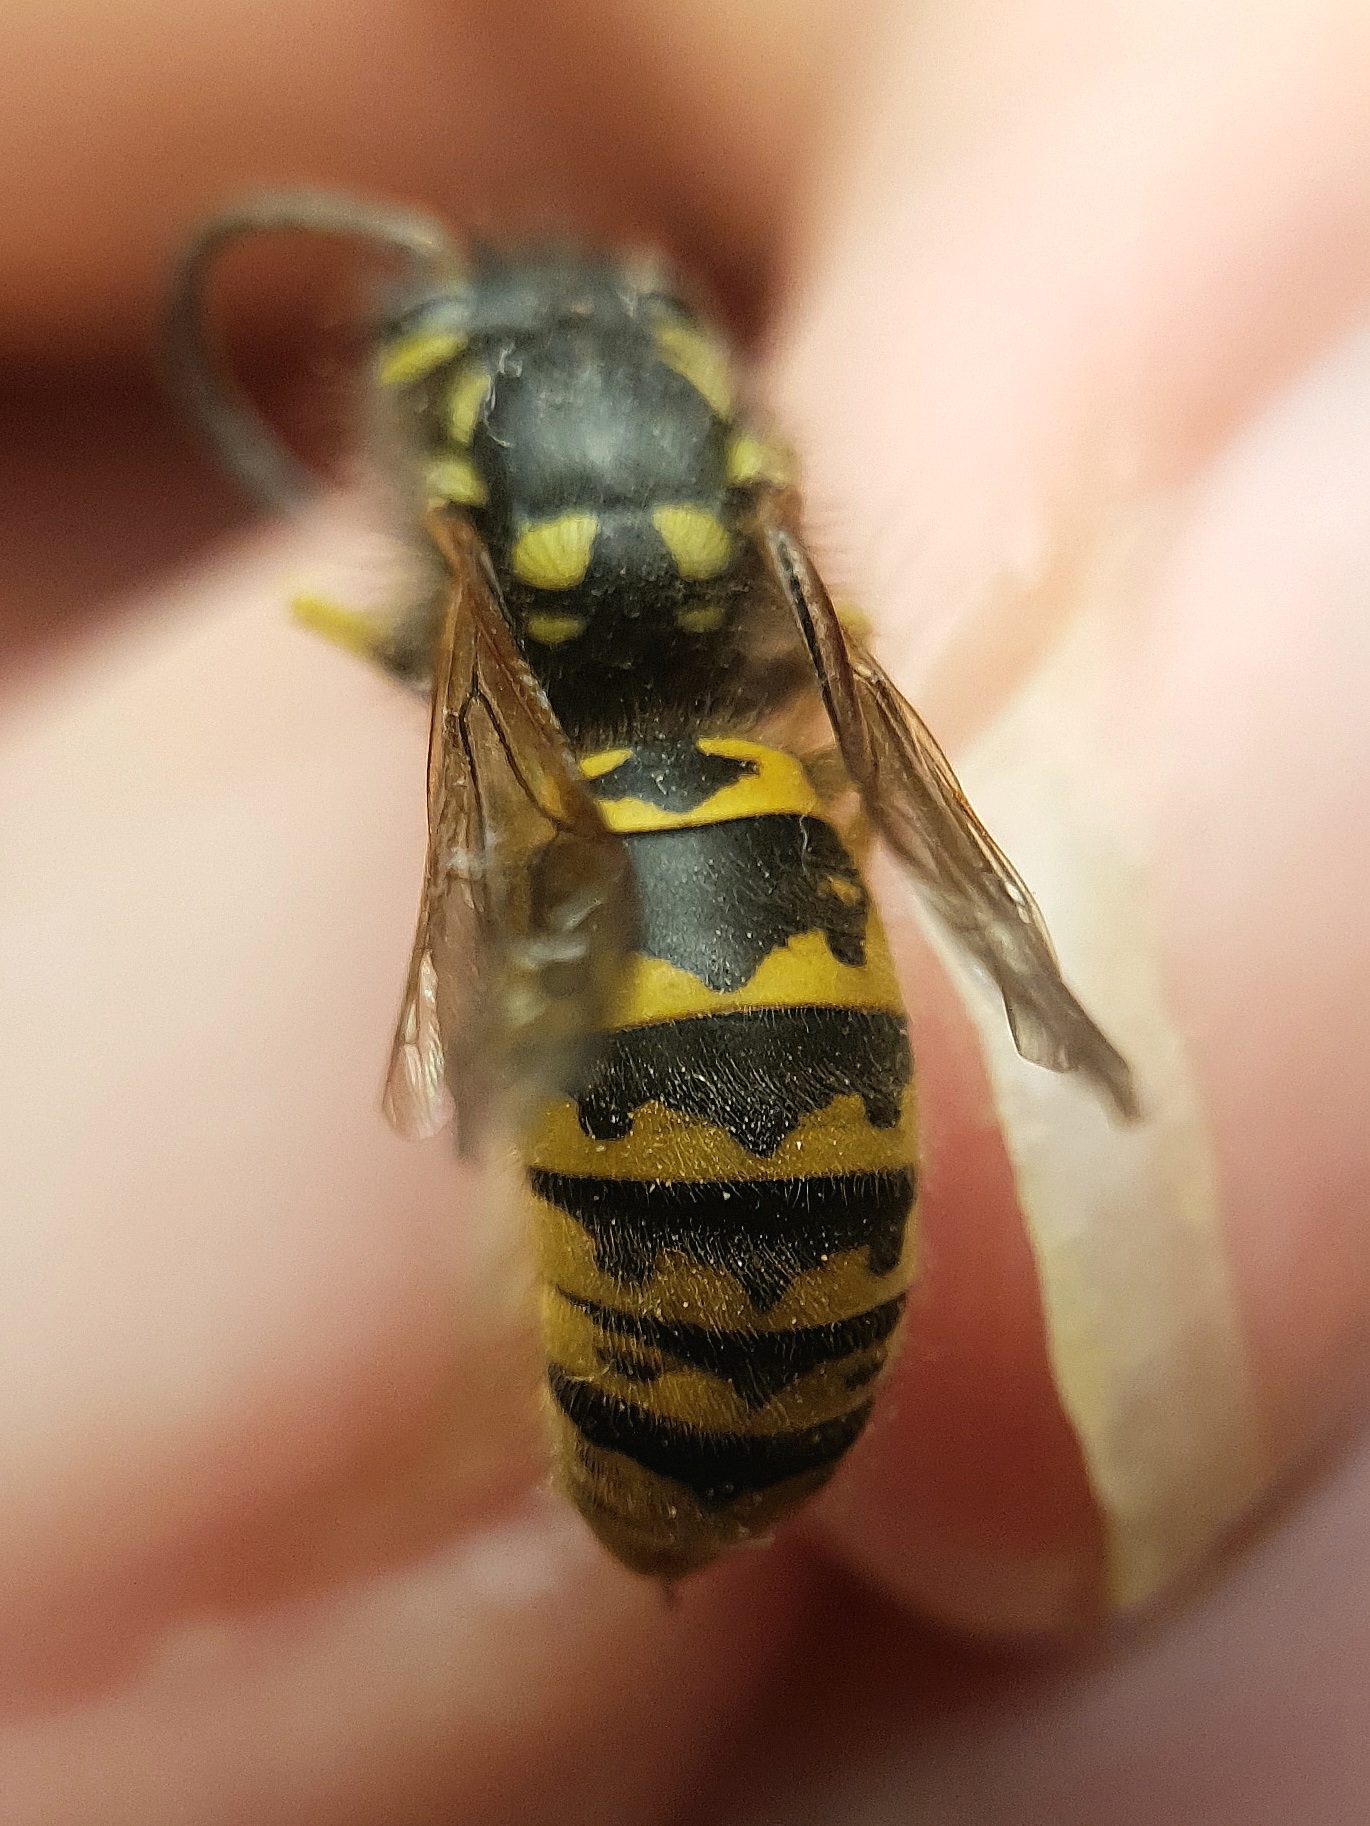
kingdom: Animalia
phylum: Arthropoda
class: Insecta
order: Hymenoptera
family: Vespidae
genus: Vespula
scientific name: Vespula germanica
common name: German wasp
